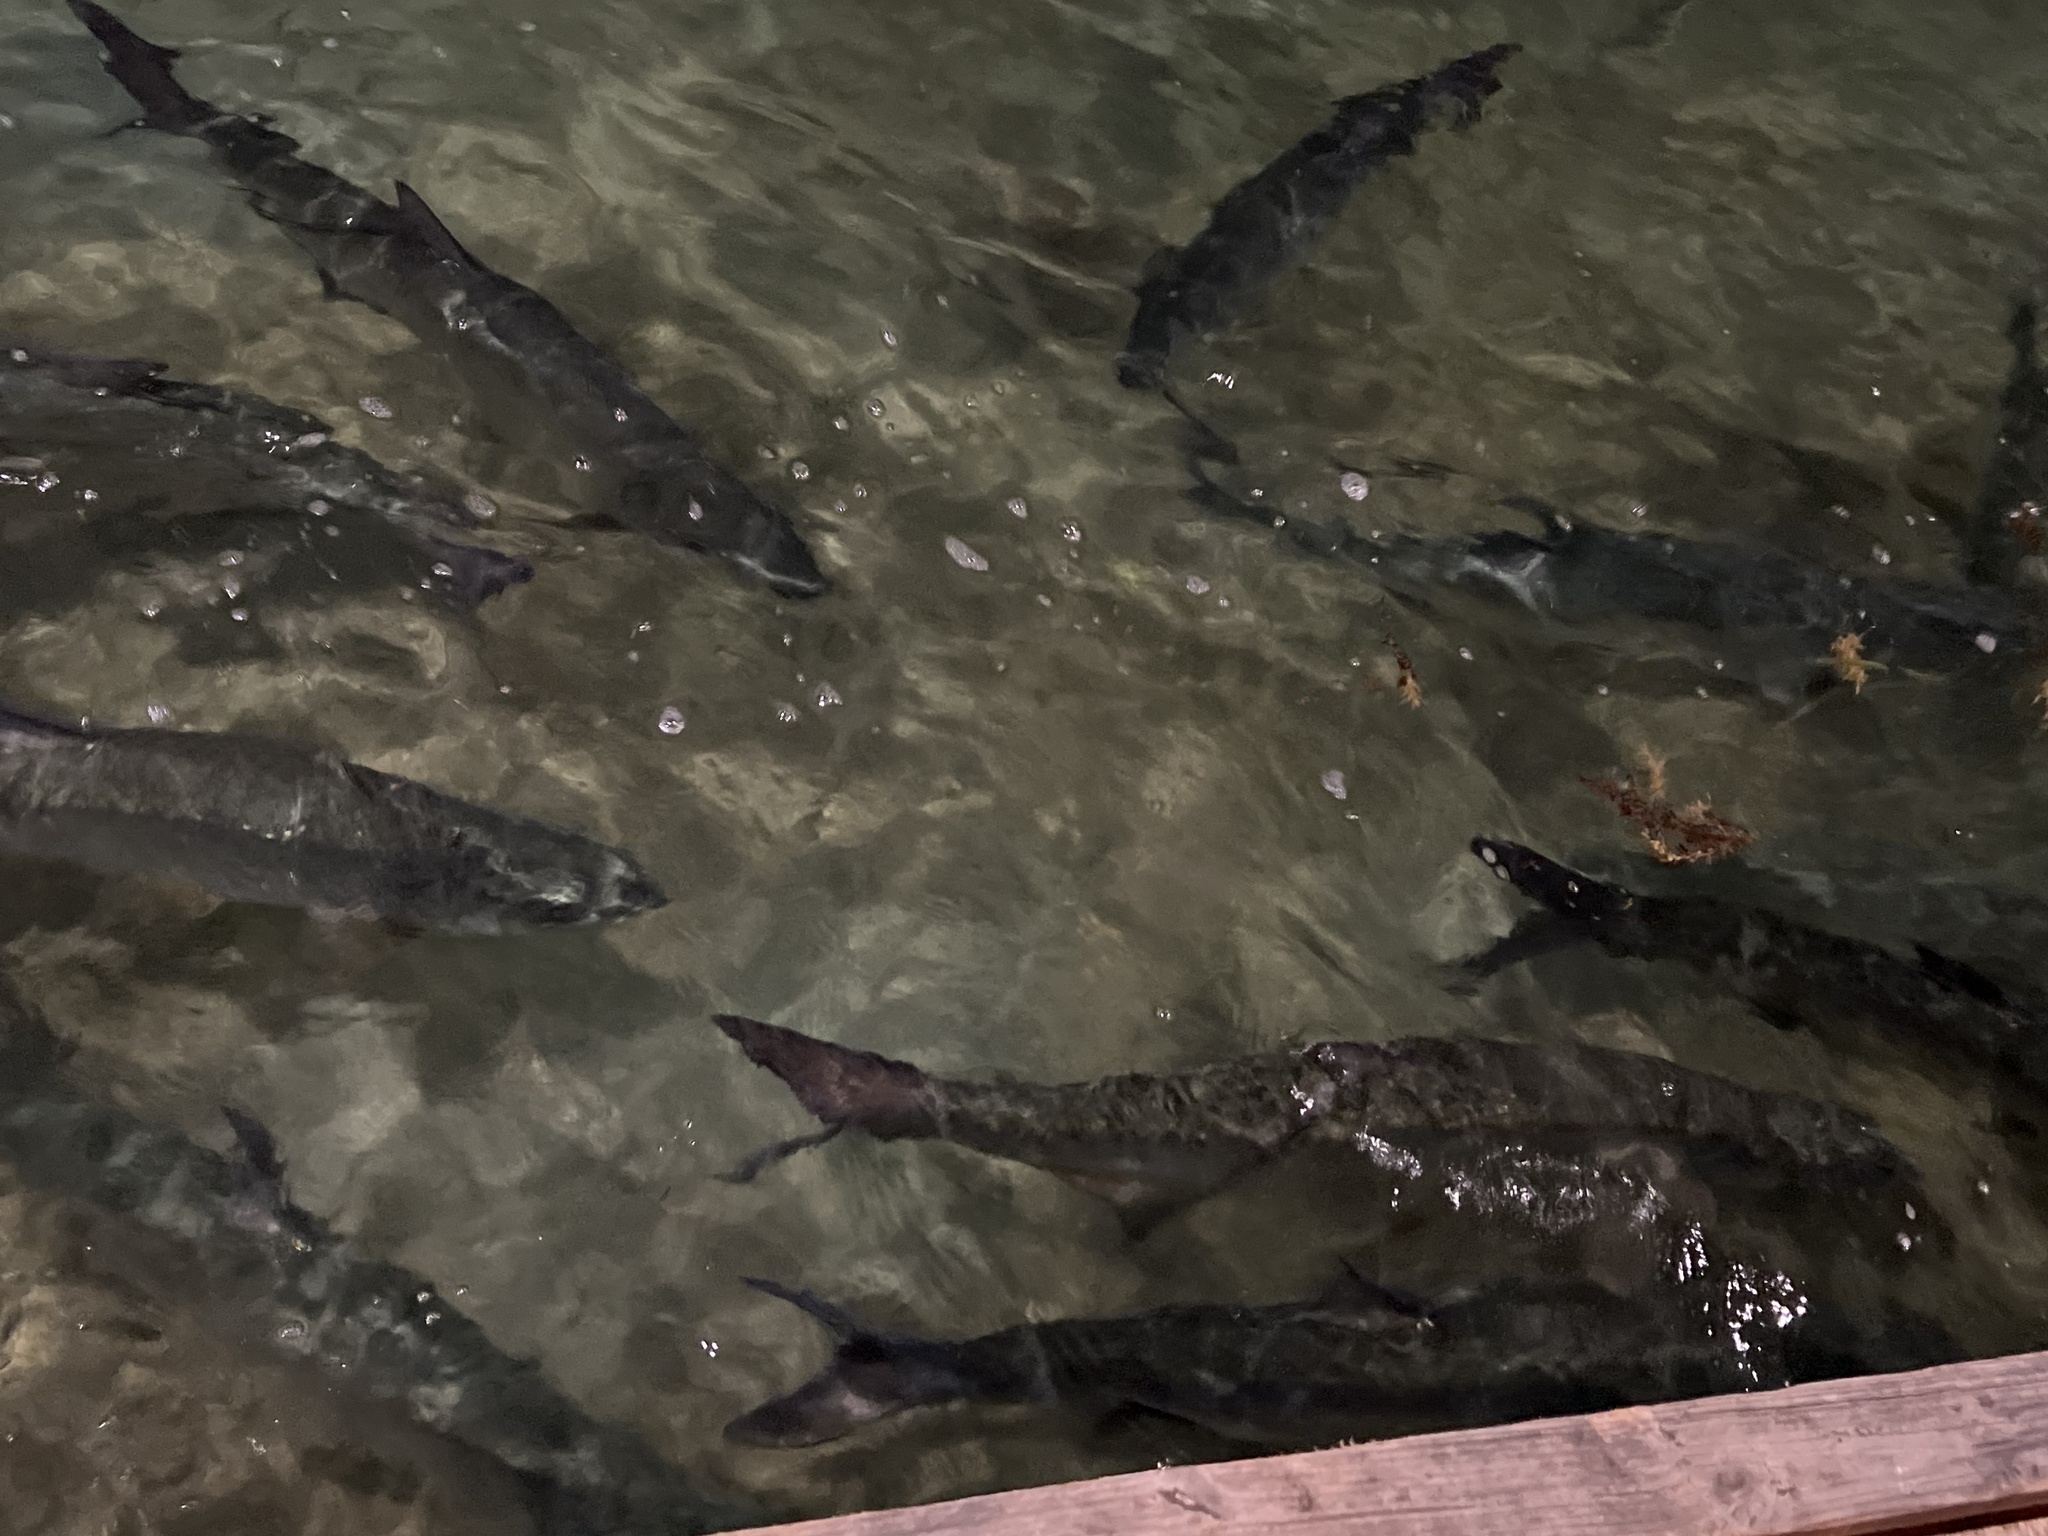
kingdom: Animalia
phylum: Chordata
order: Elopiformes
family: Megalopidae
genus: Megalops
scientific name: Megalops atlanticus
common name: Tarpon
